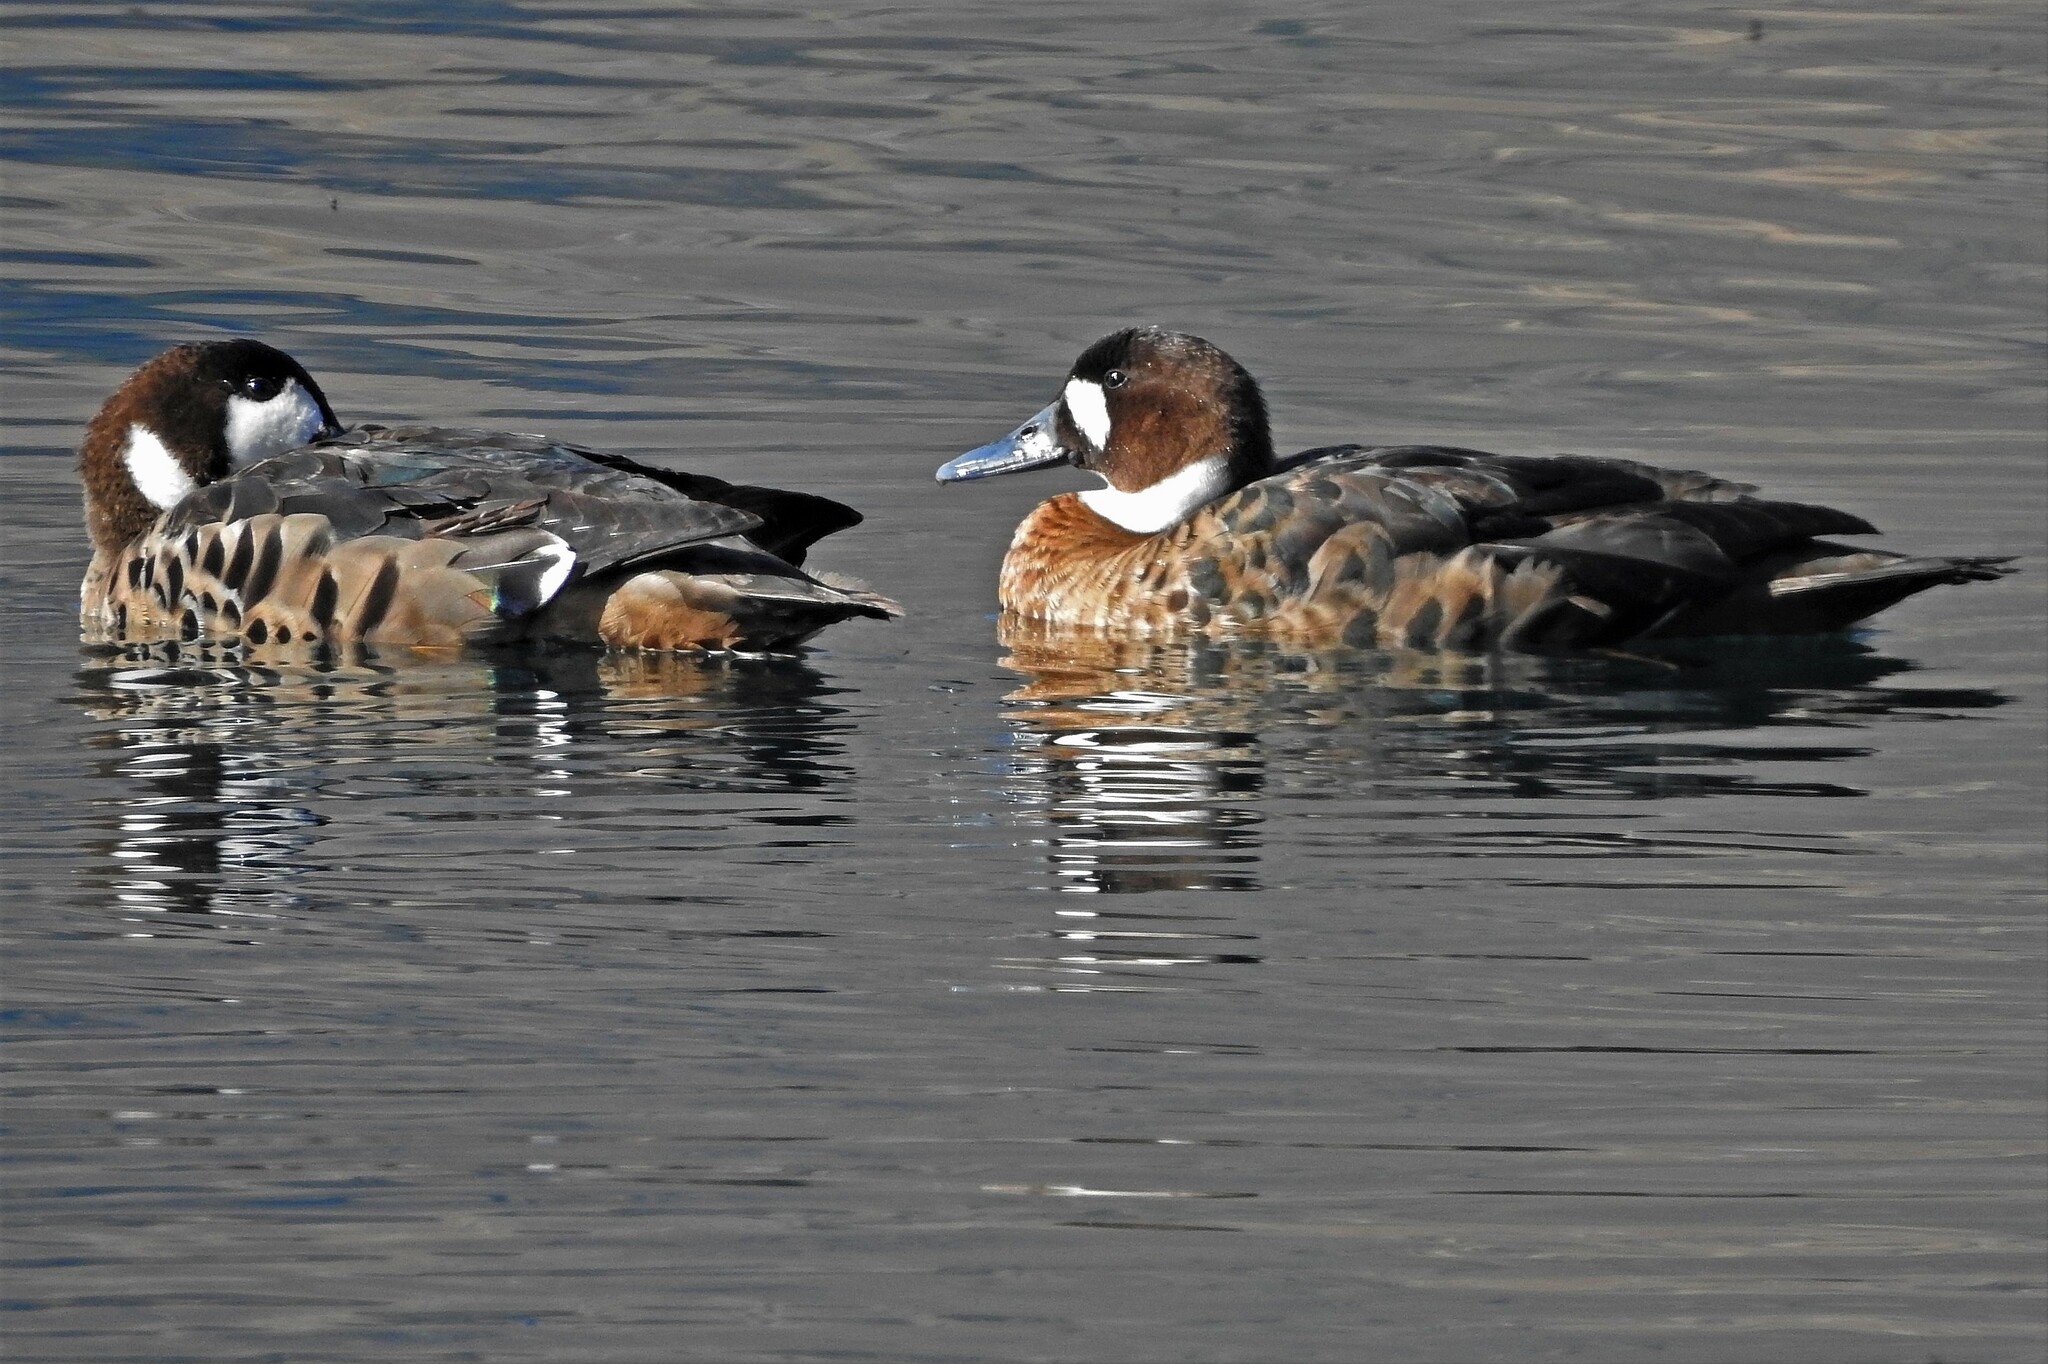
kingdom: Animalia
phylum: Chordata
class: Aves
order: Anseriformes
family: Anatidae
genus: Speculanas
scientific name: Speculanas specularis
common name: Bronze-winged duck
